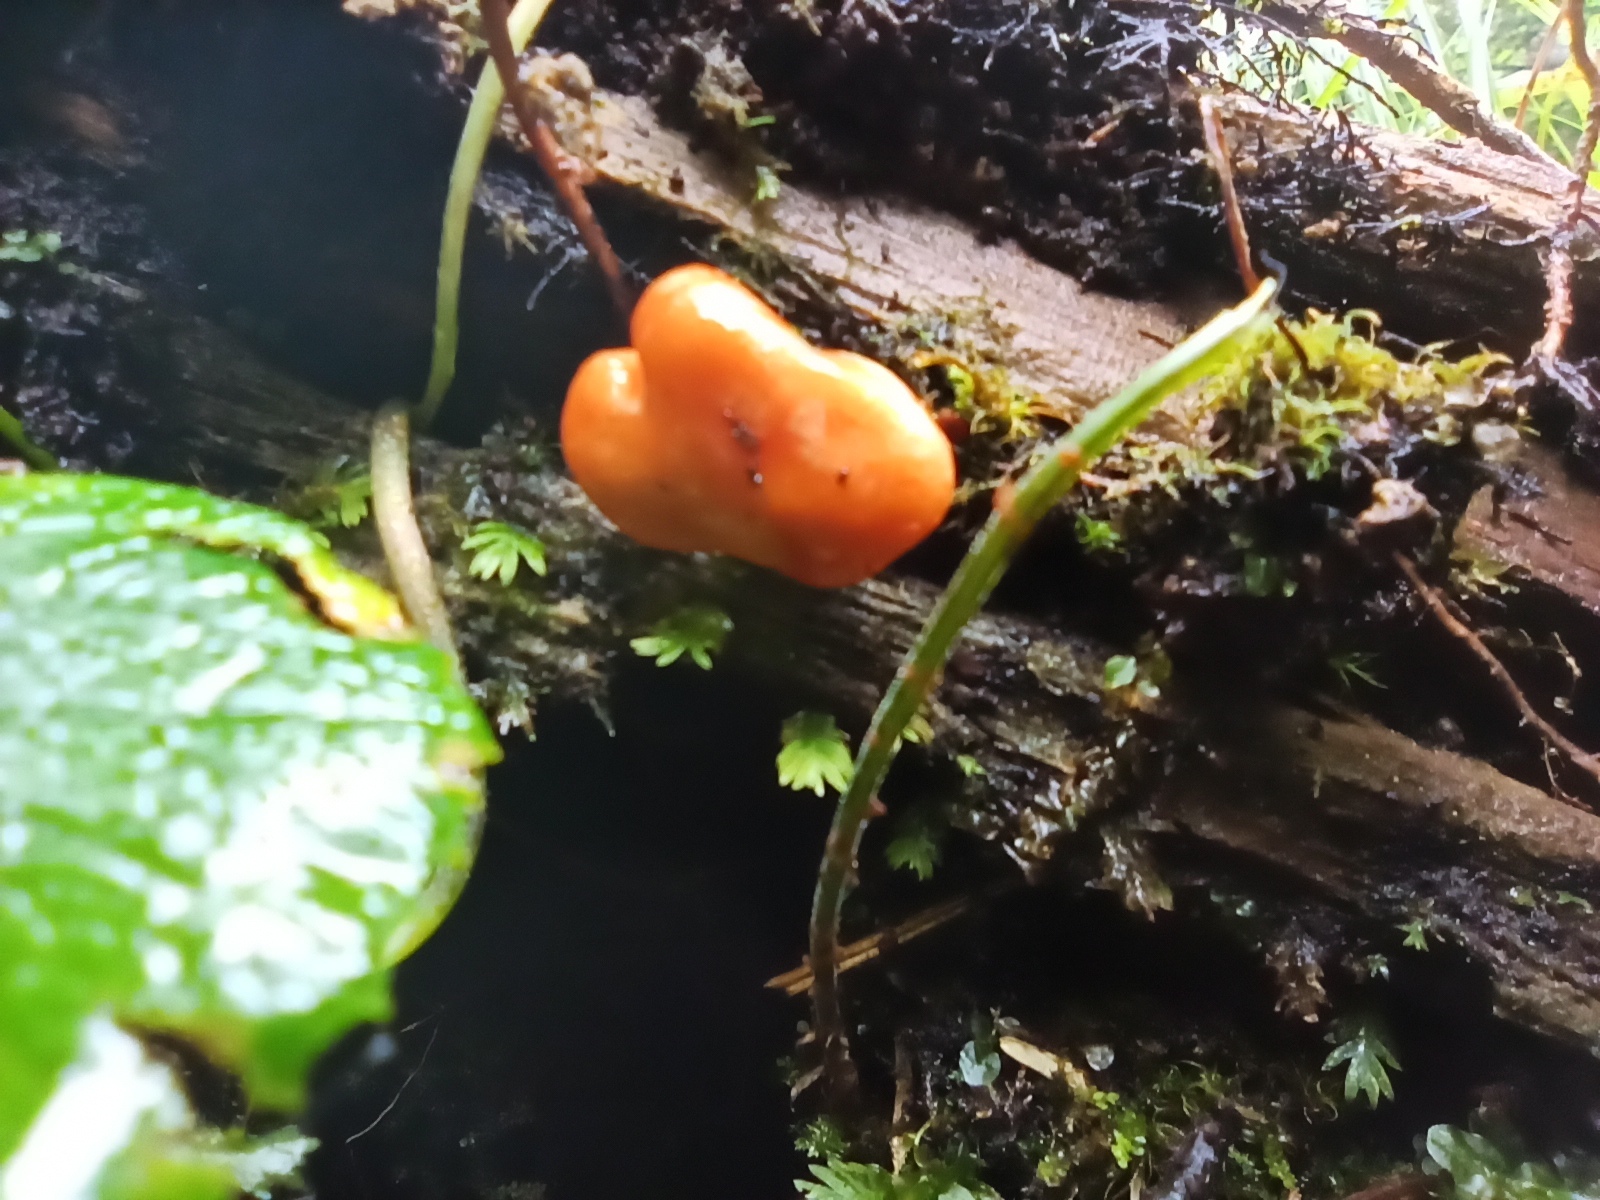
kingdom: Fungi
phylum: Ascomycota
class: Sordariomycetes
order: Hypocreales
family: Hypocreaceae
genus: Hypomyces
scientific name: Hypomyces lateritius
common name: Ochre gillgobbler
